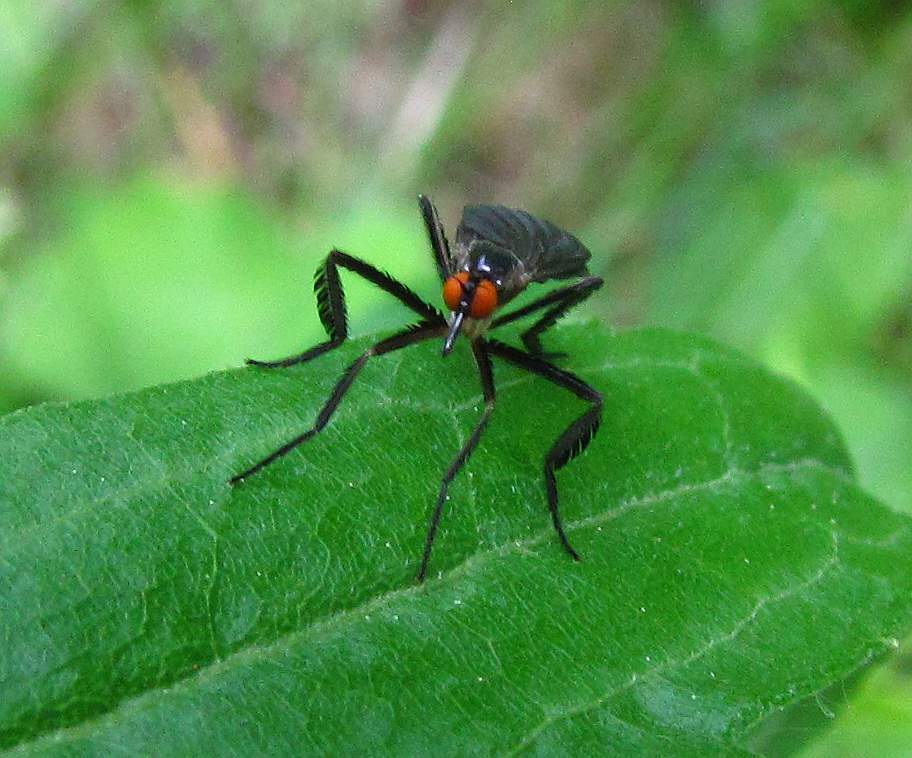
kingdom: Animalia
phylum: Arthropoda
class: Insecta
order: Diptera
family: Empididae
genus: Rhamphomyia
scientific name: Rhamphomyia longicauda
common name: Long-tailed dance fly
